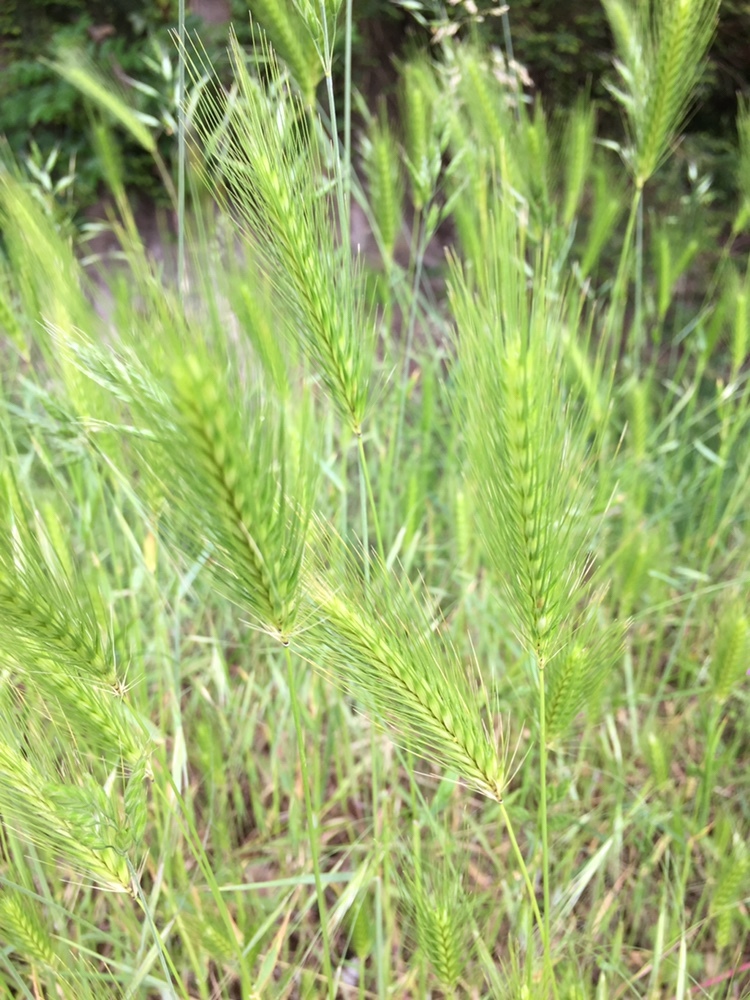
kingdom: Plantae
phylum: Tracheophyta
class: Liliopsida
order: Poales
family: Poaceae
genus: Hordeum
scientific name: Hordeum murinum
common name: Wall barley
